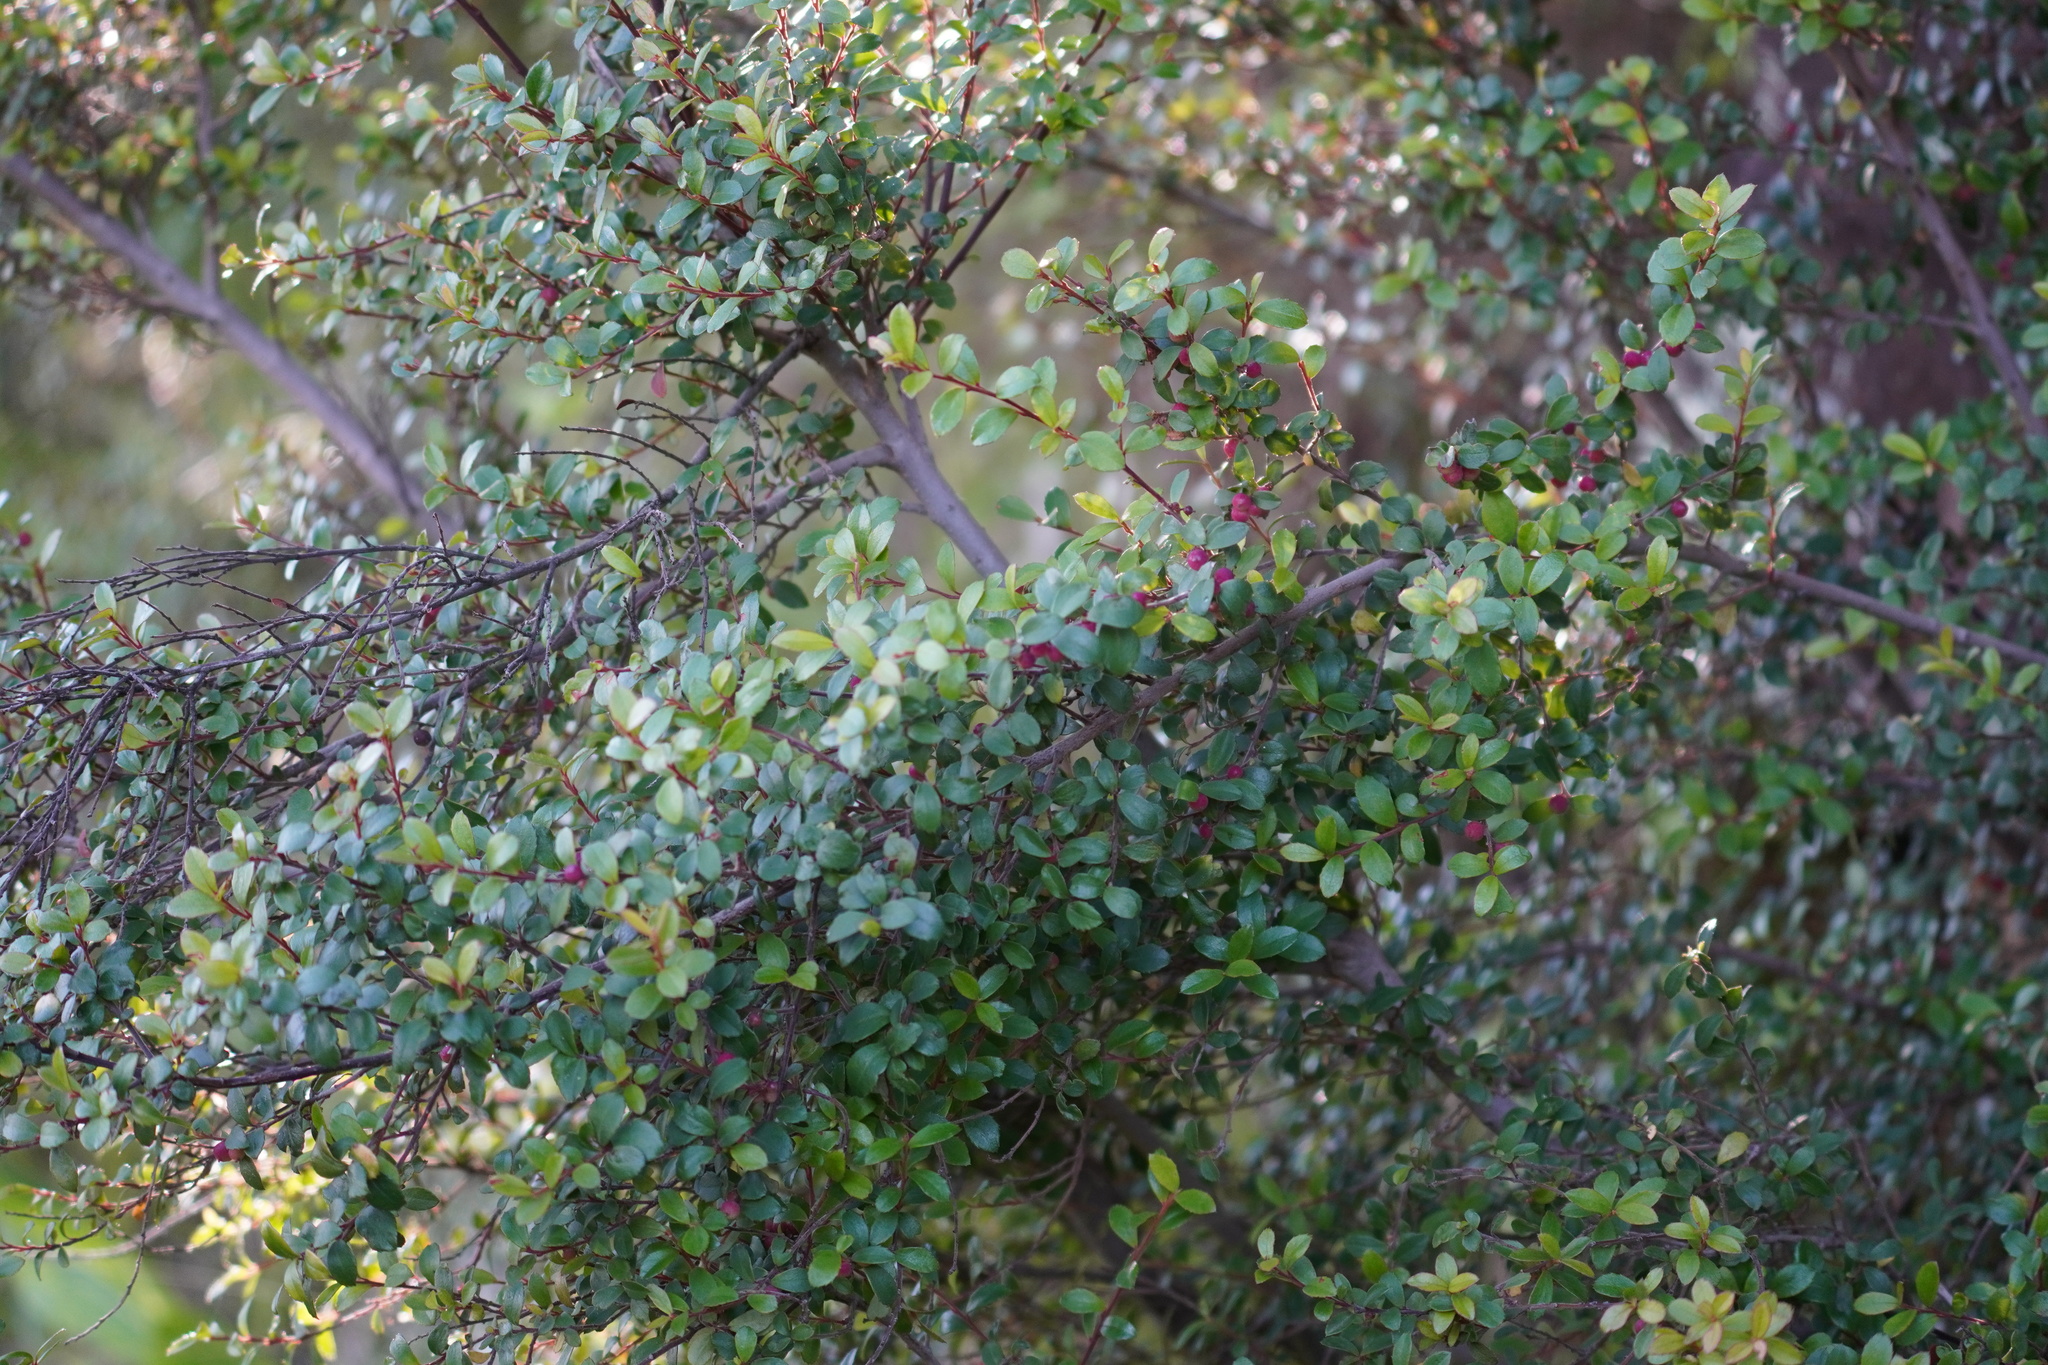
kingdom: Plantae
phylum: Tracheophyta
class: Magnoliopsida
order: Ericales
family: Primulaceae
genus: Myrsine
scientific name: Myrsine africana
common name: African-boxwood
